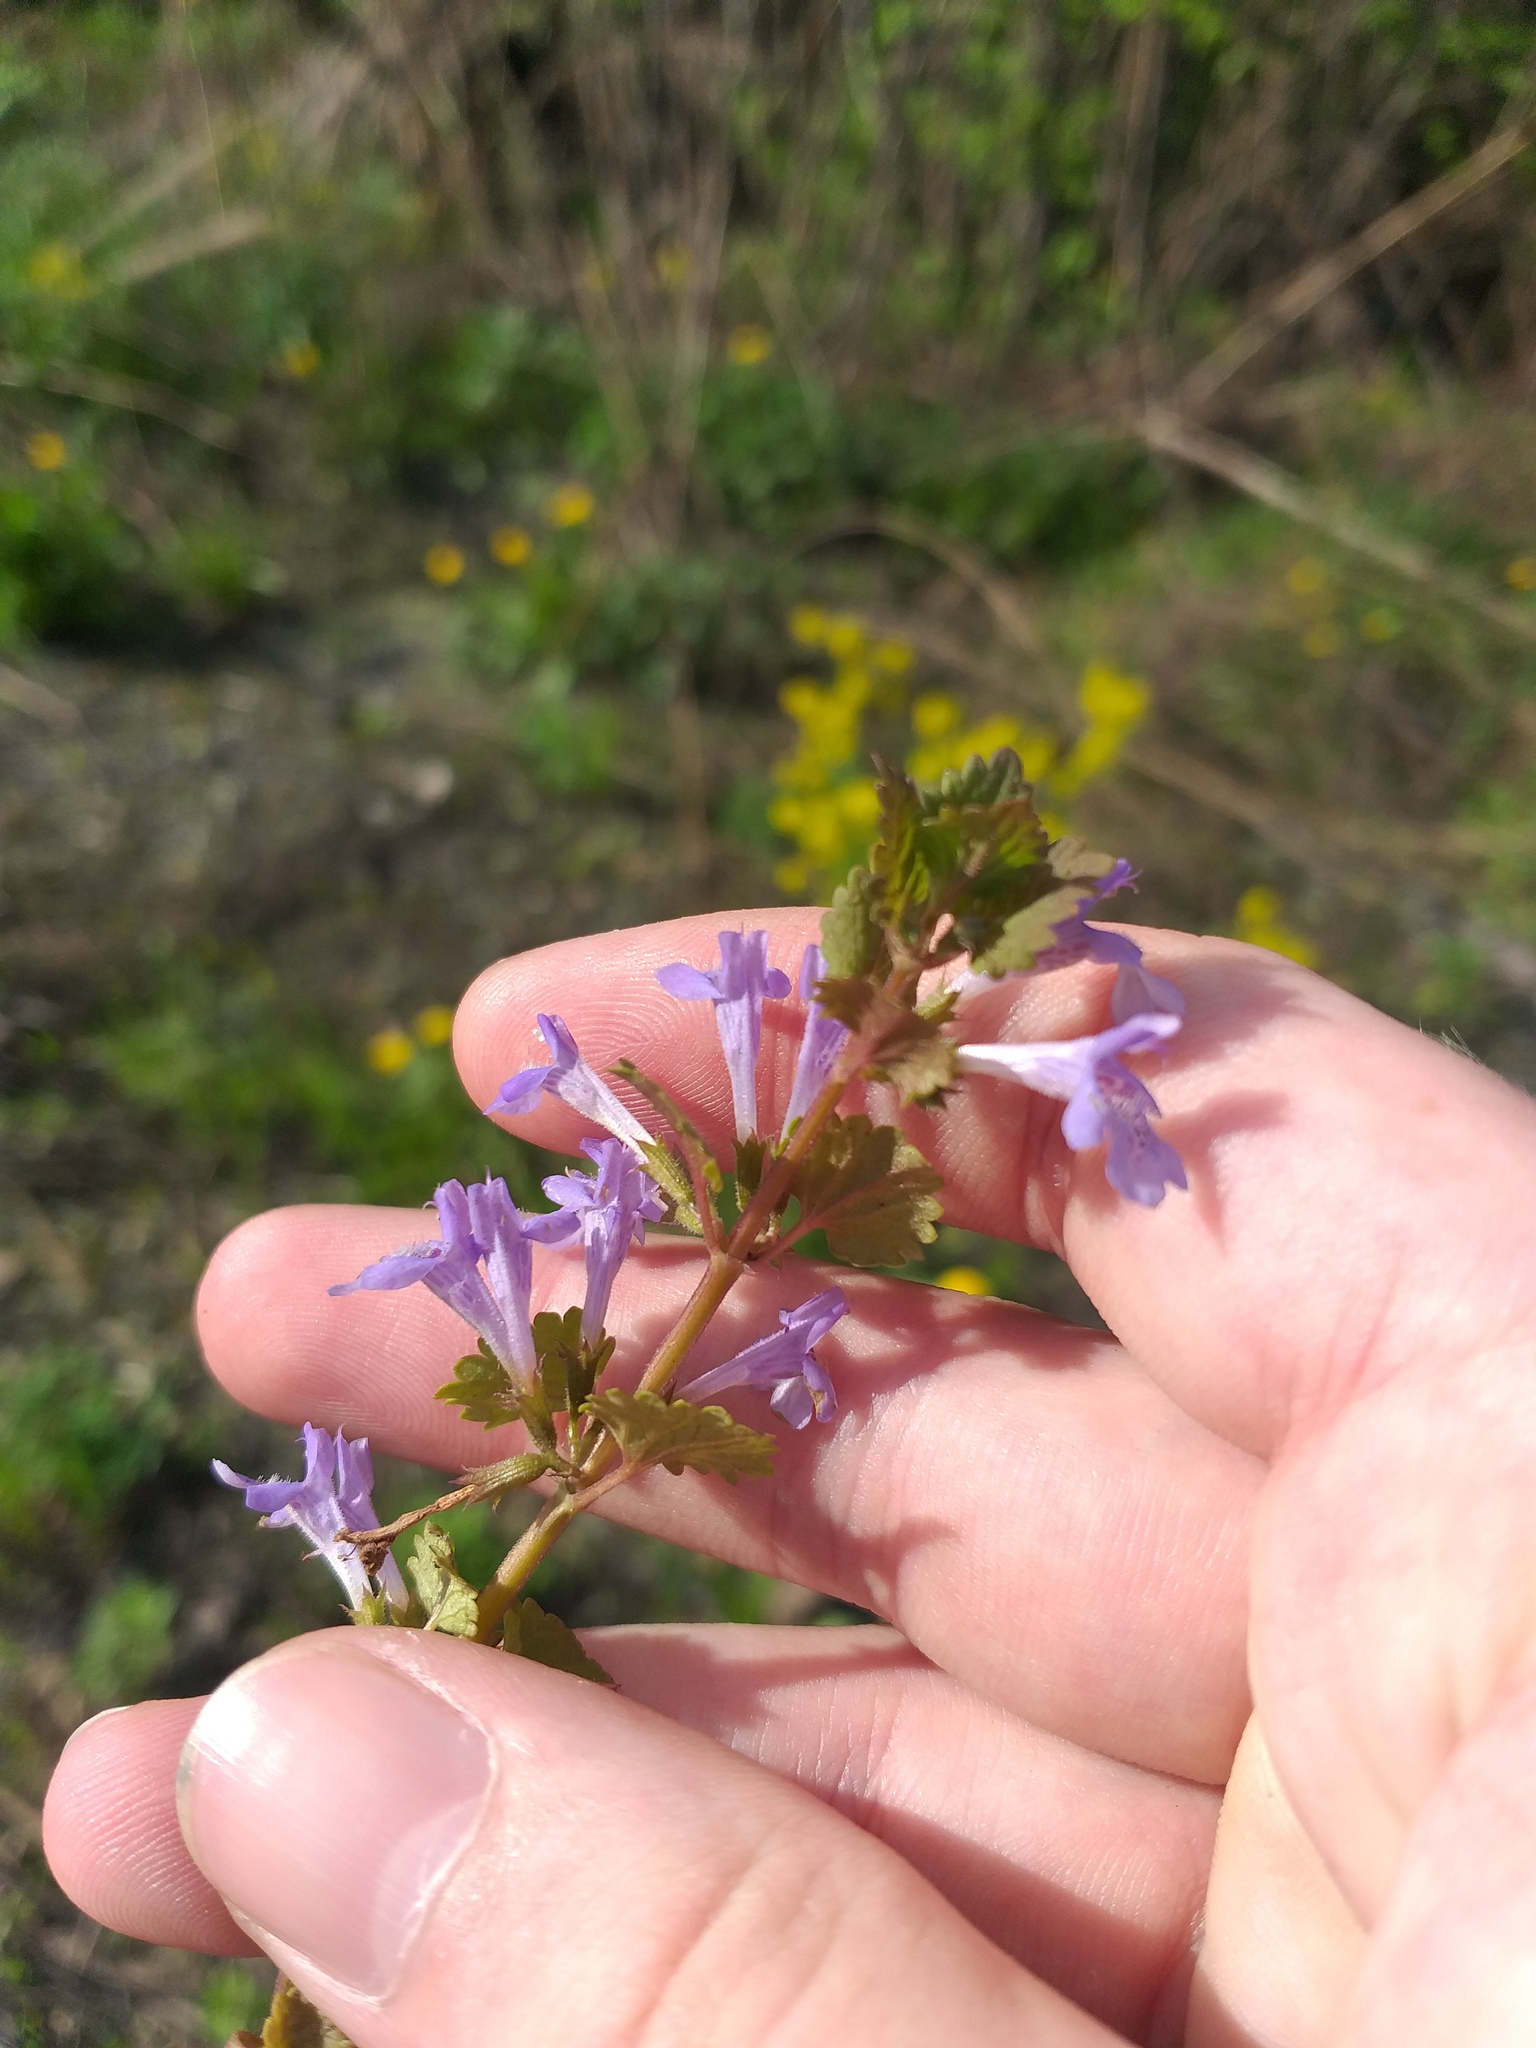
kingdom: Plantae
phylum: Tracheophyta
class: Magnoliopsida
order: Lamiales
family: Lamiaceae
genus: Glechoma
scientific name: Glechoma hederacea
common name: Ground ivy
